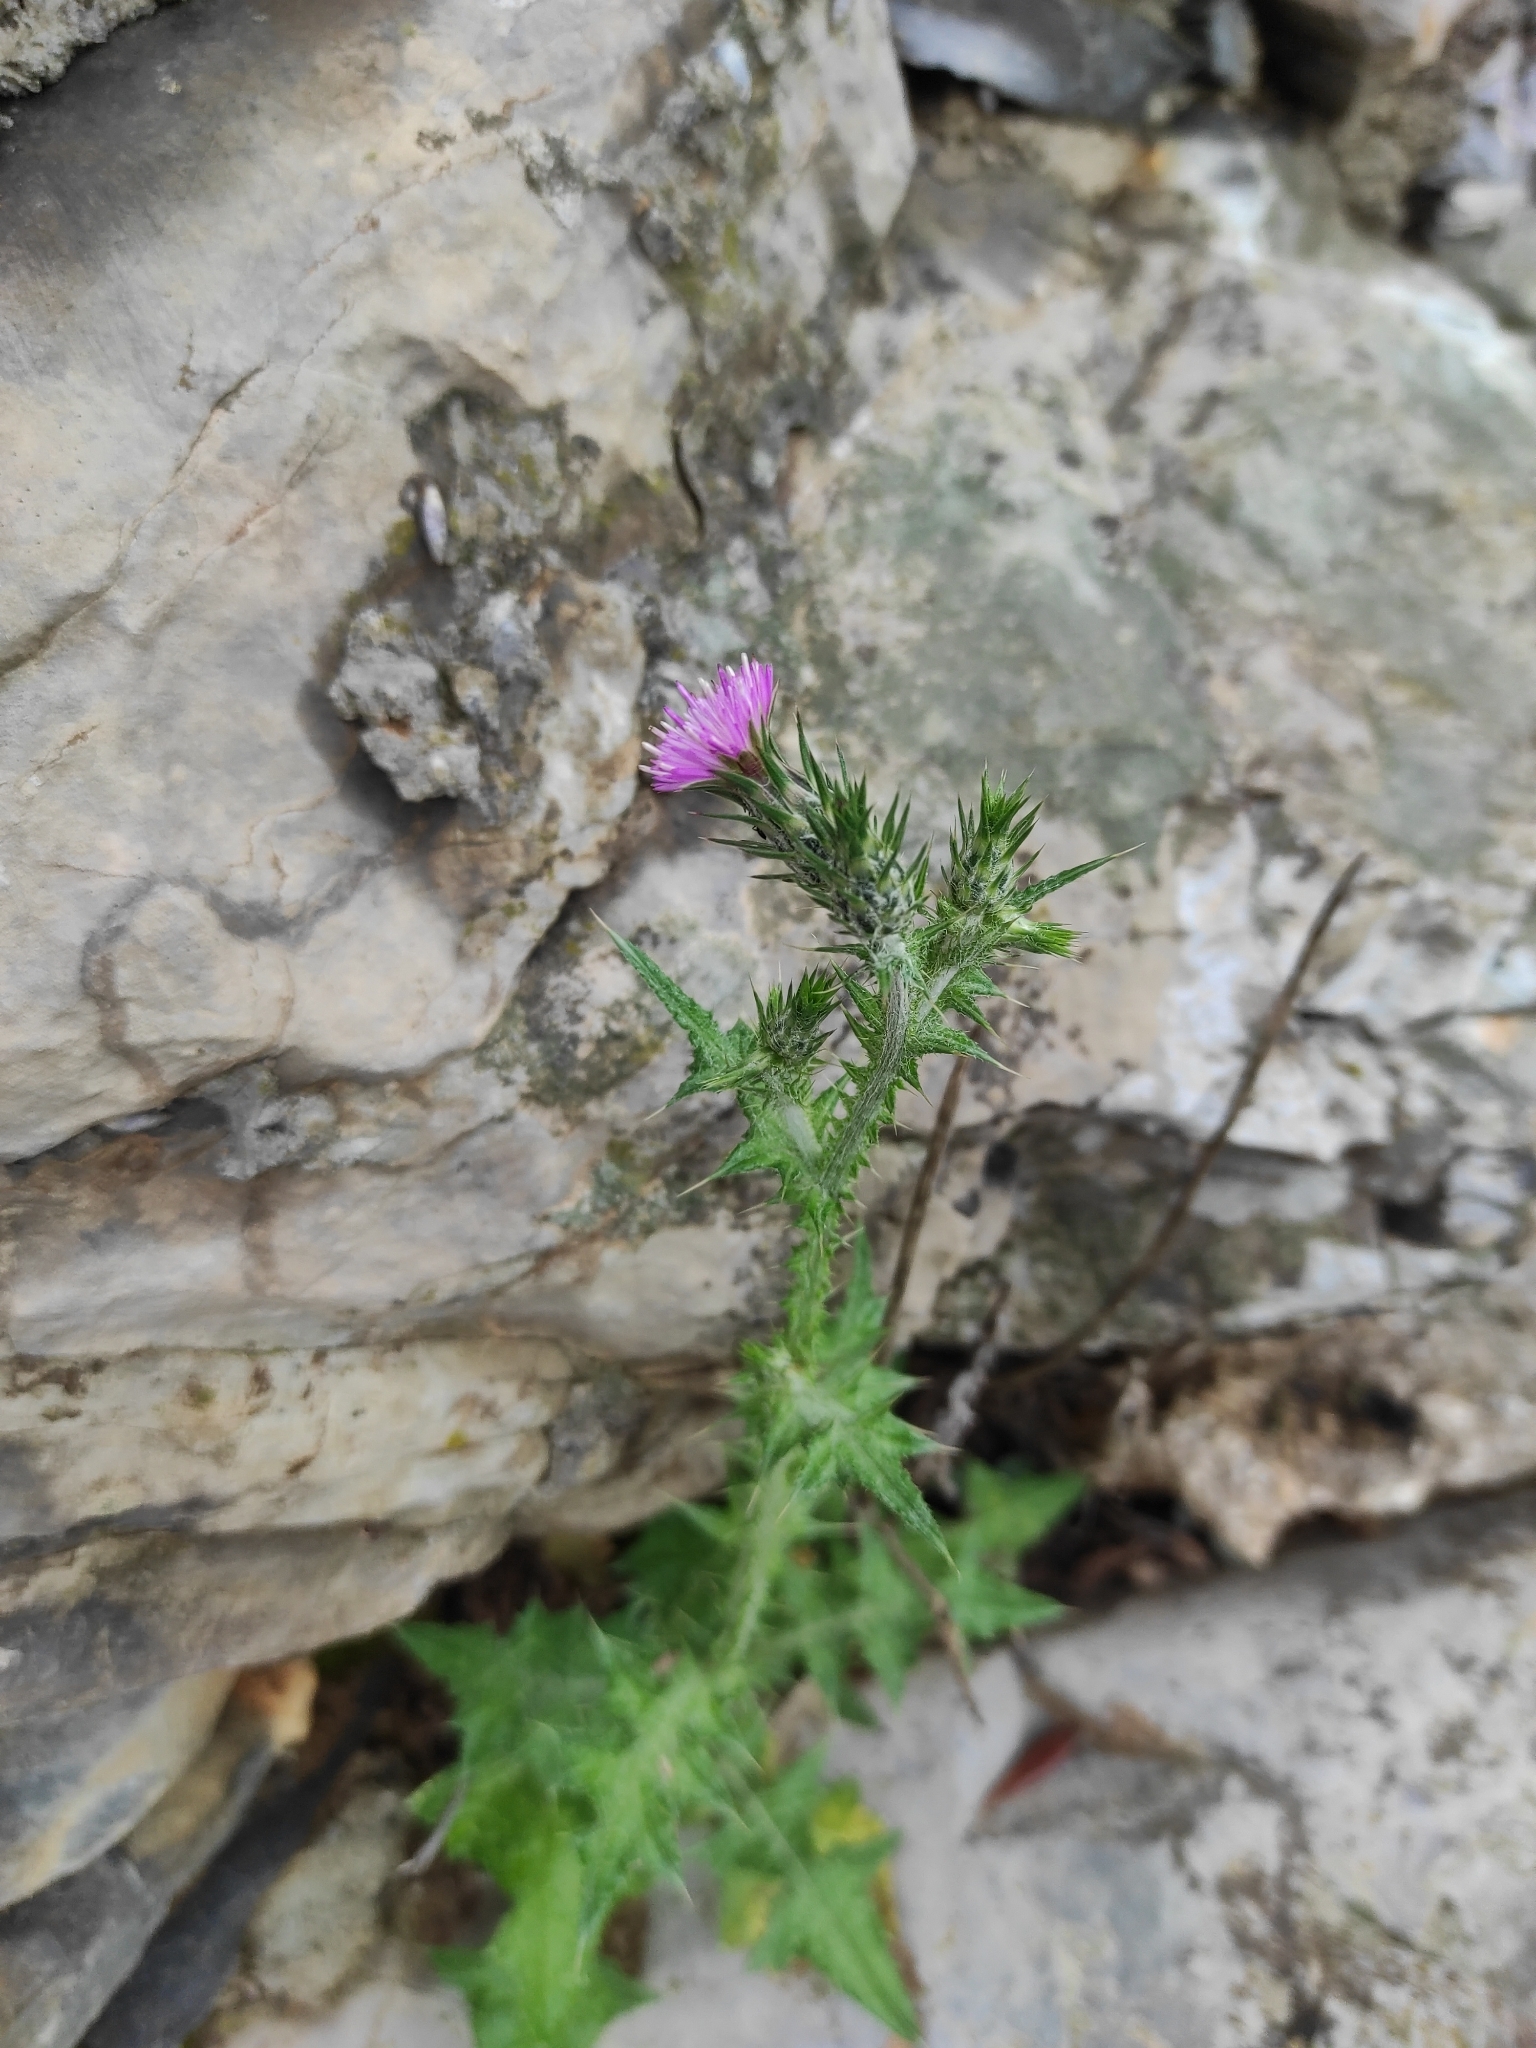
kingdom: Plantae
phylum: Tracheophyta
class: Magnoliopsida
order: Asterales
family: Asteraceae
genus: Carduus
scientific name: Carduus pycnocephalus
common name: Plymouth thistle
